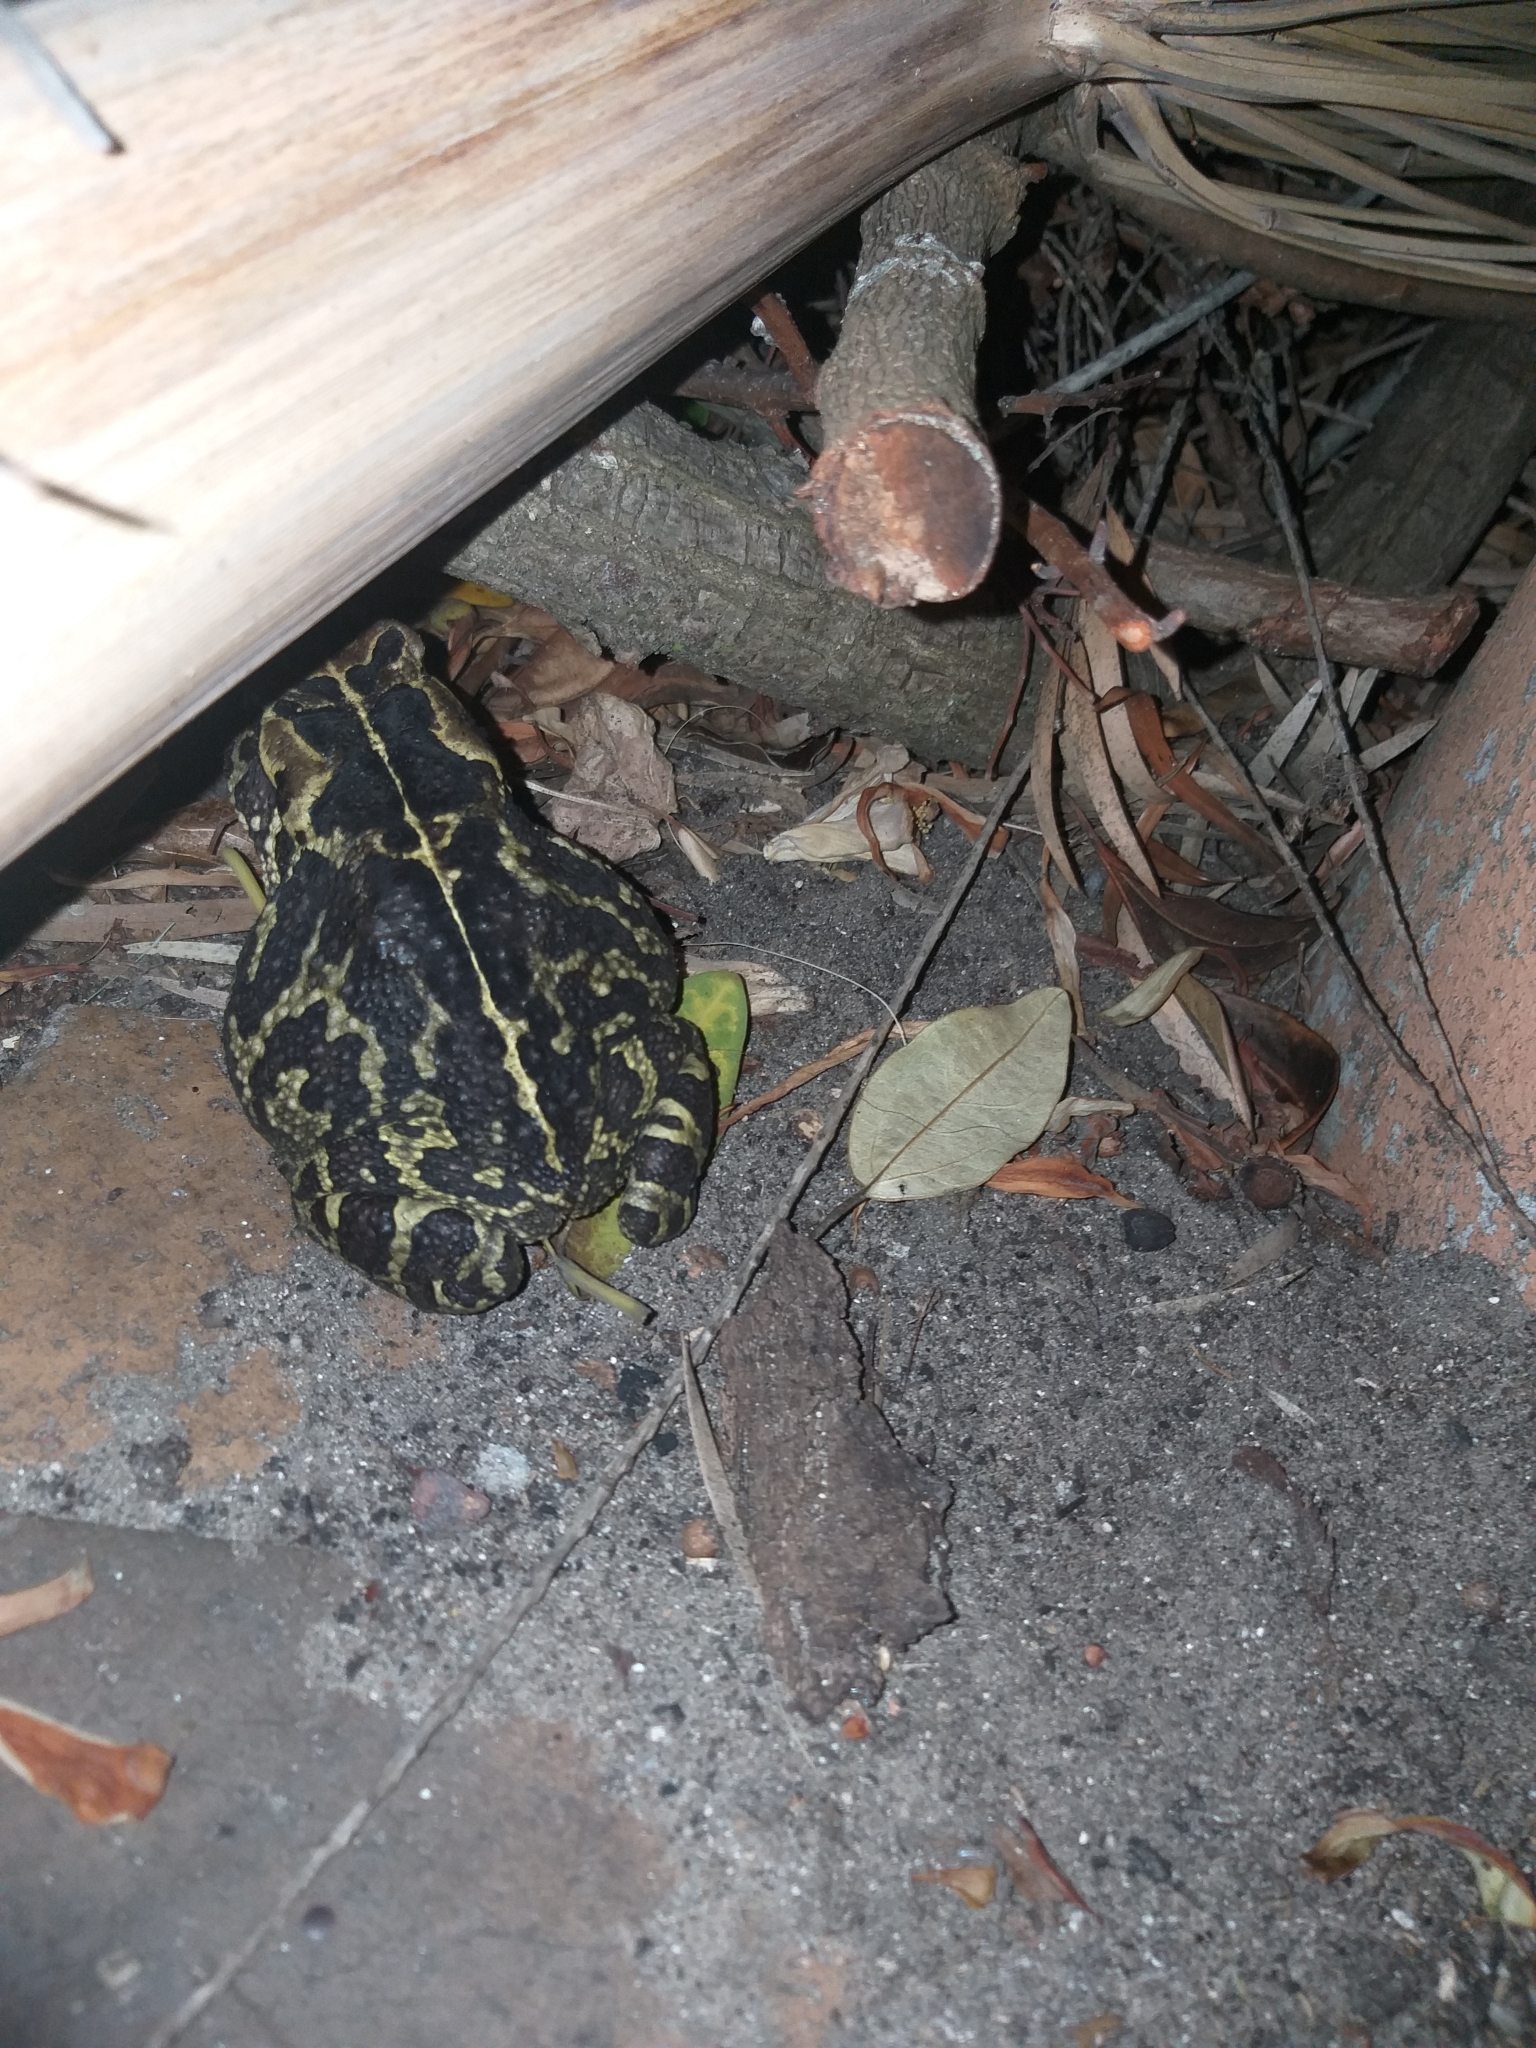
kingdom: Animalia
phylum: Chordata
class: Amphibia
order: Anura
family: Bufonidae
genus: Sclerophrys
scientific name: Sclerophrys pantherina
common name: Panther toad
